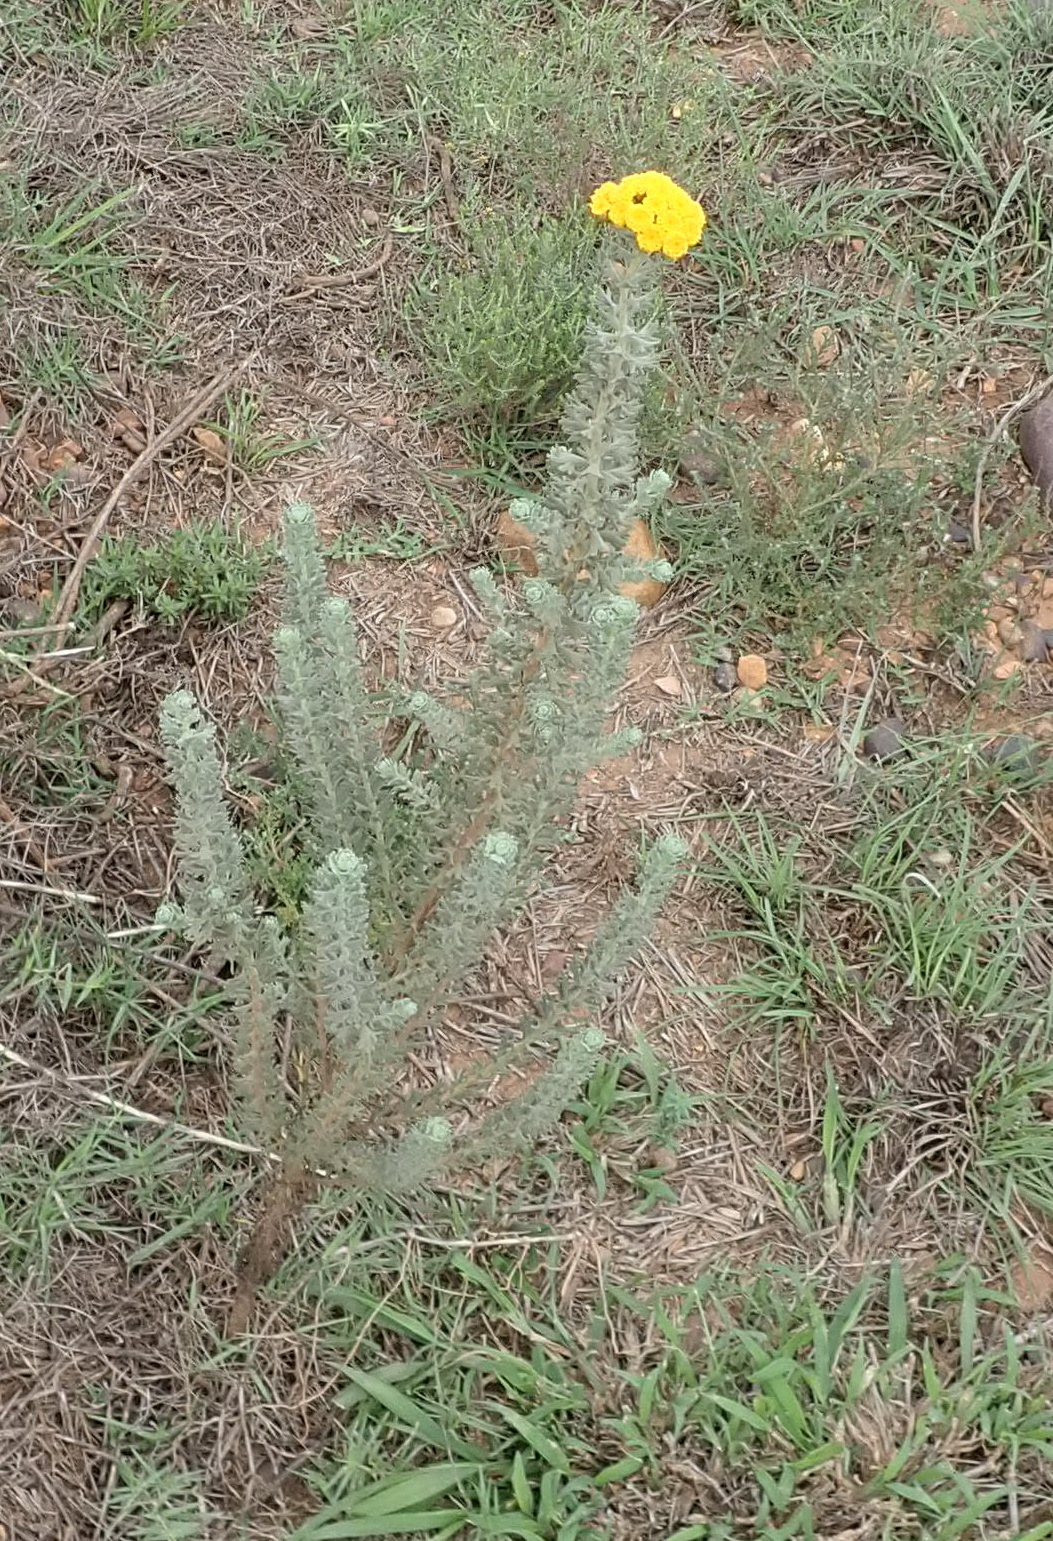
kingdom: Plantae
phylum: Tracheophyta
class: Magnoliopsida
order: Asterales
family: Asteraceae
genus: Athanasia
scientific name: Athanasia trifurcata
